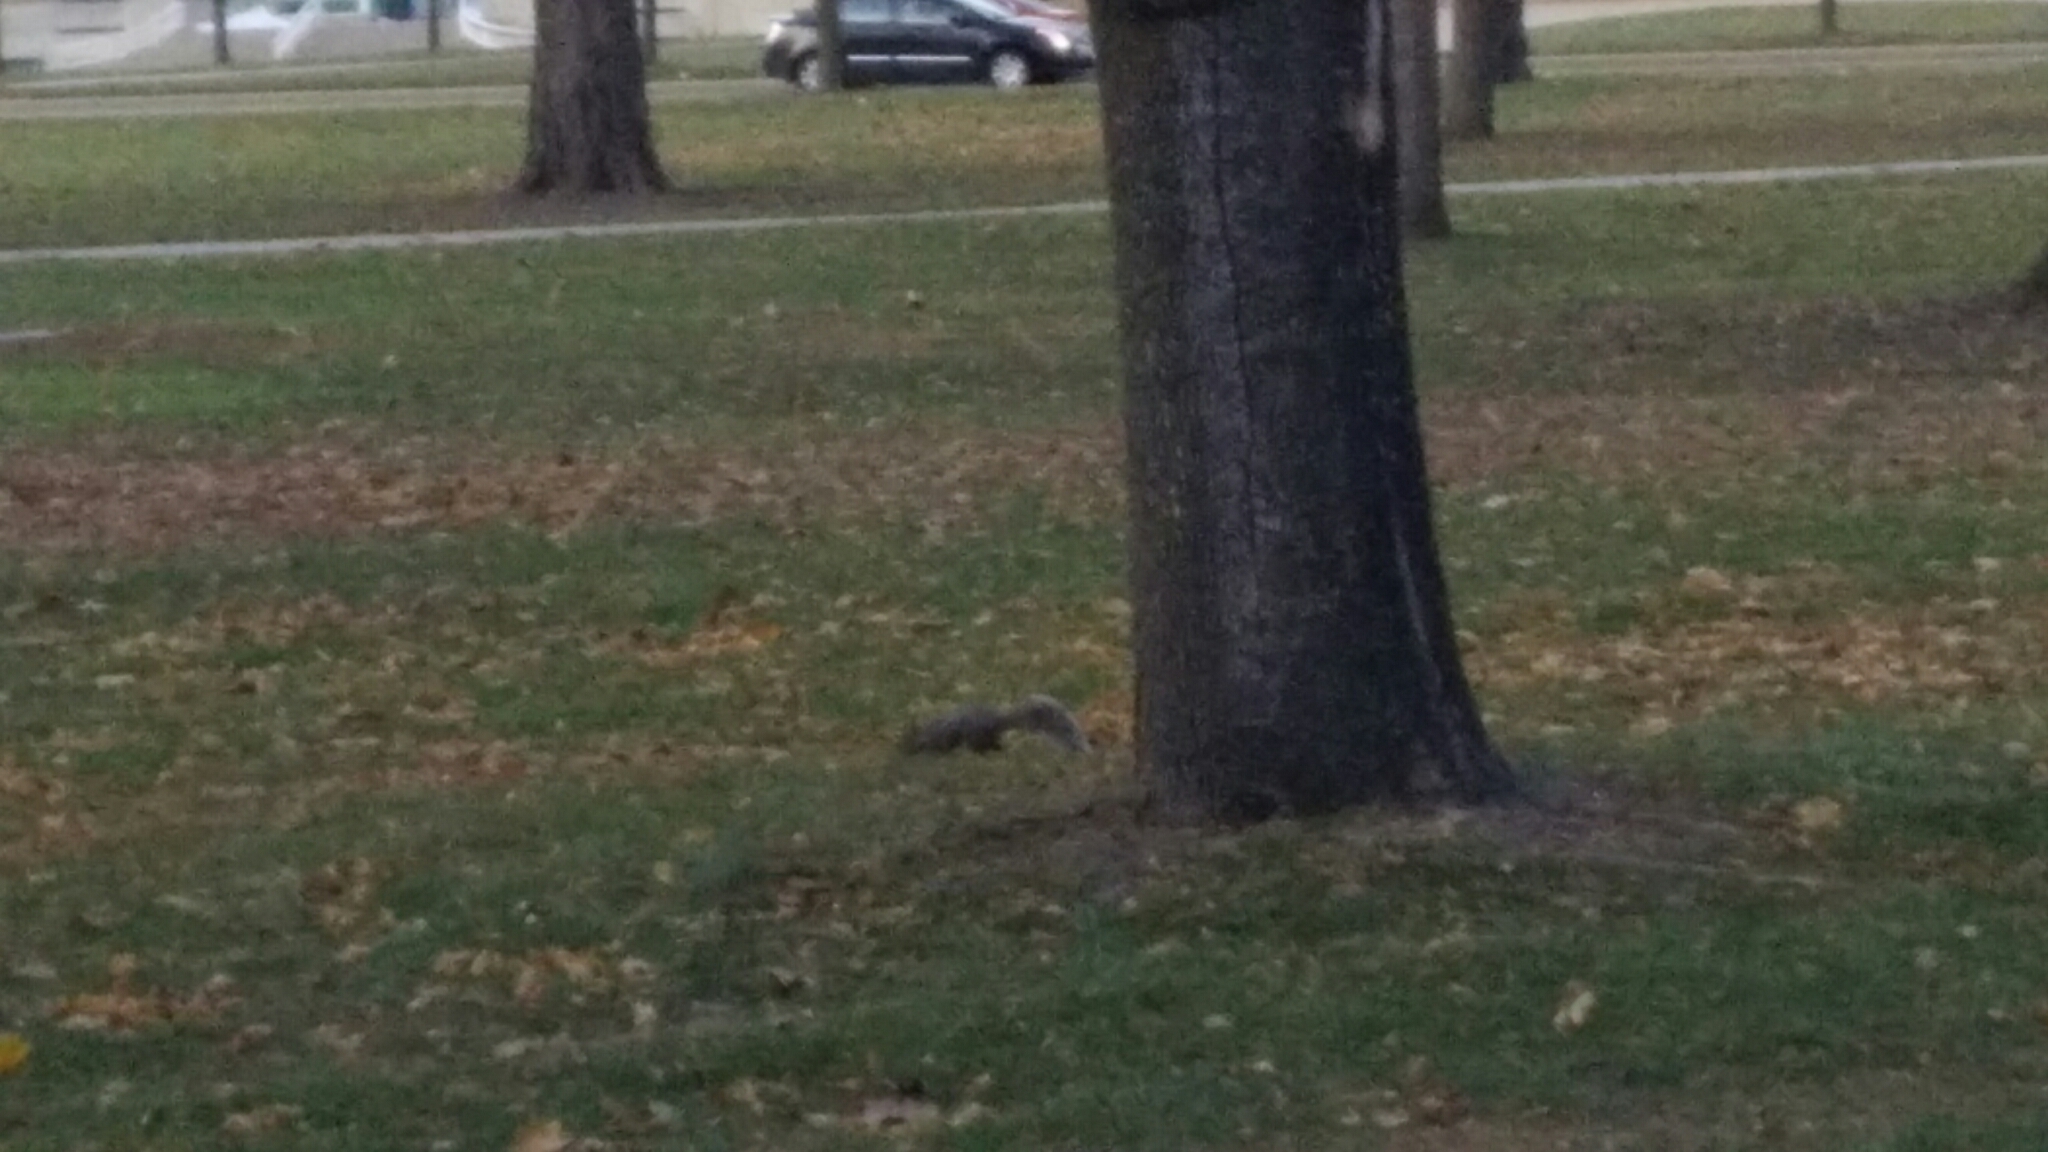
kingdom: Animalia
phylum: Chordata
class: Mammalia
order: Rodentia
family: Sciuridae
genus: Sciurus
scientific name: Sciurus carolinensis
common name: Eastern gray squirrel
